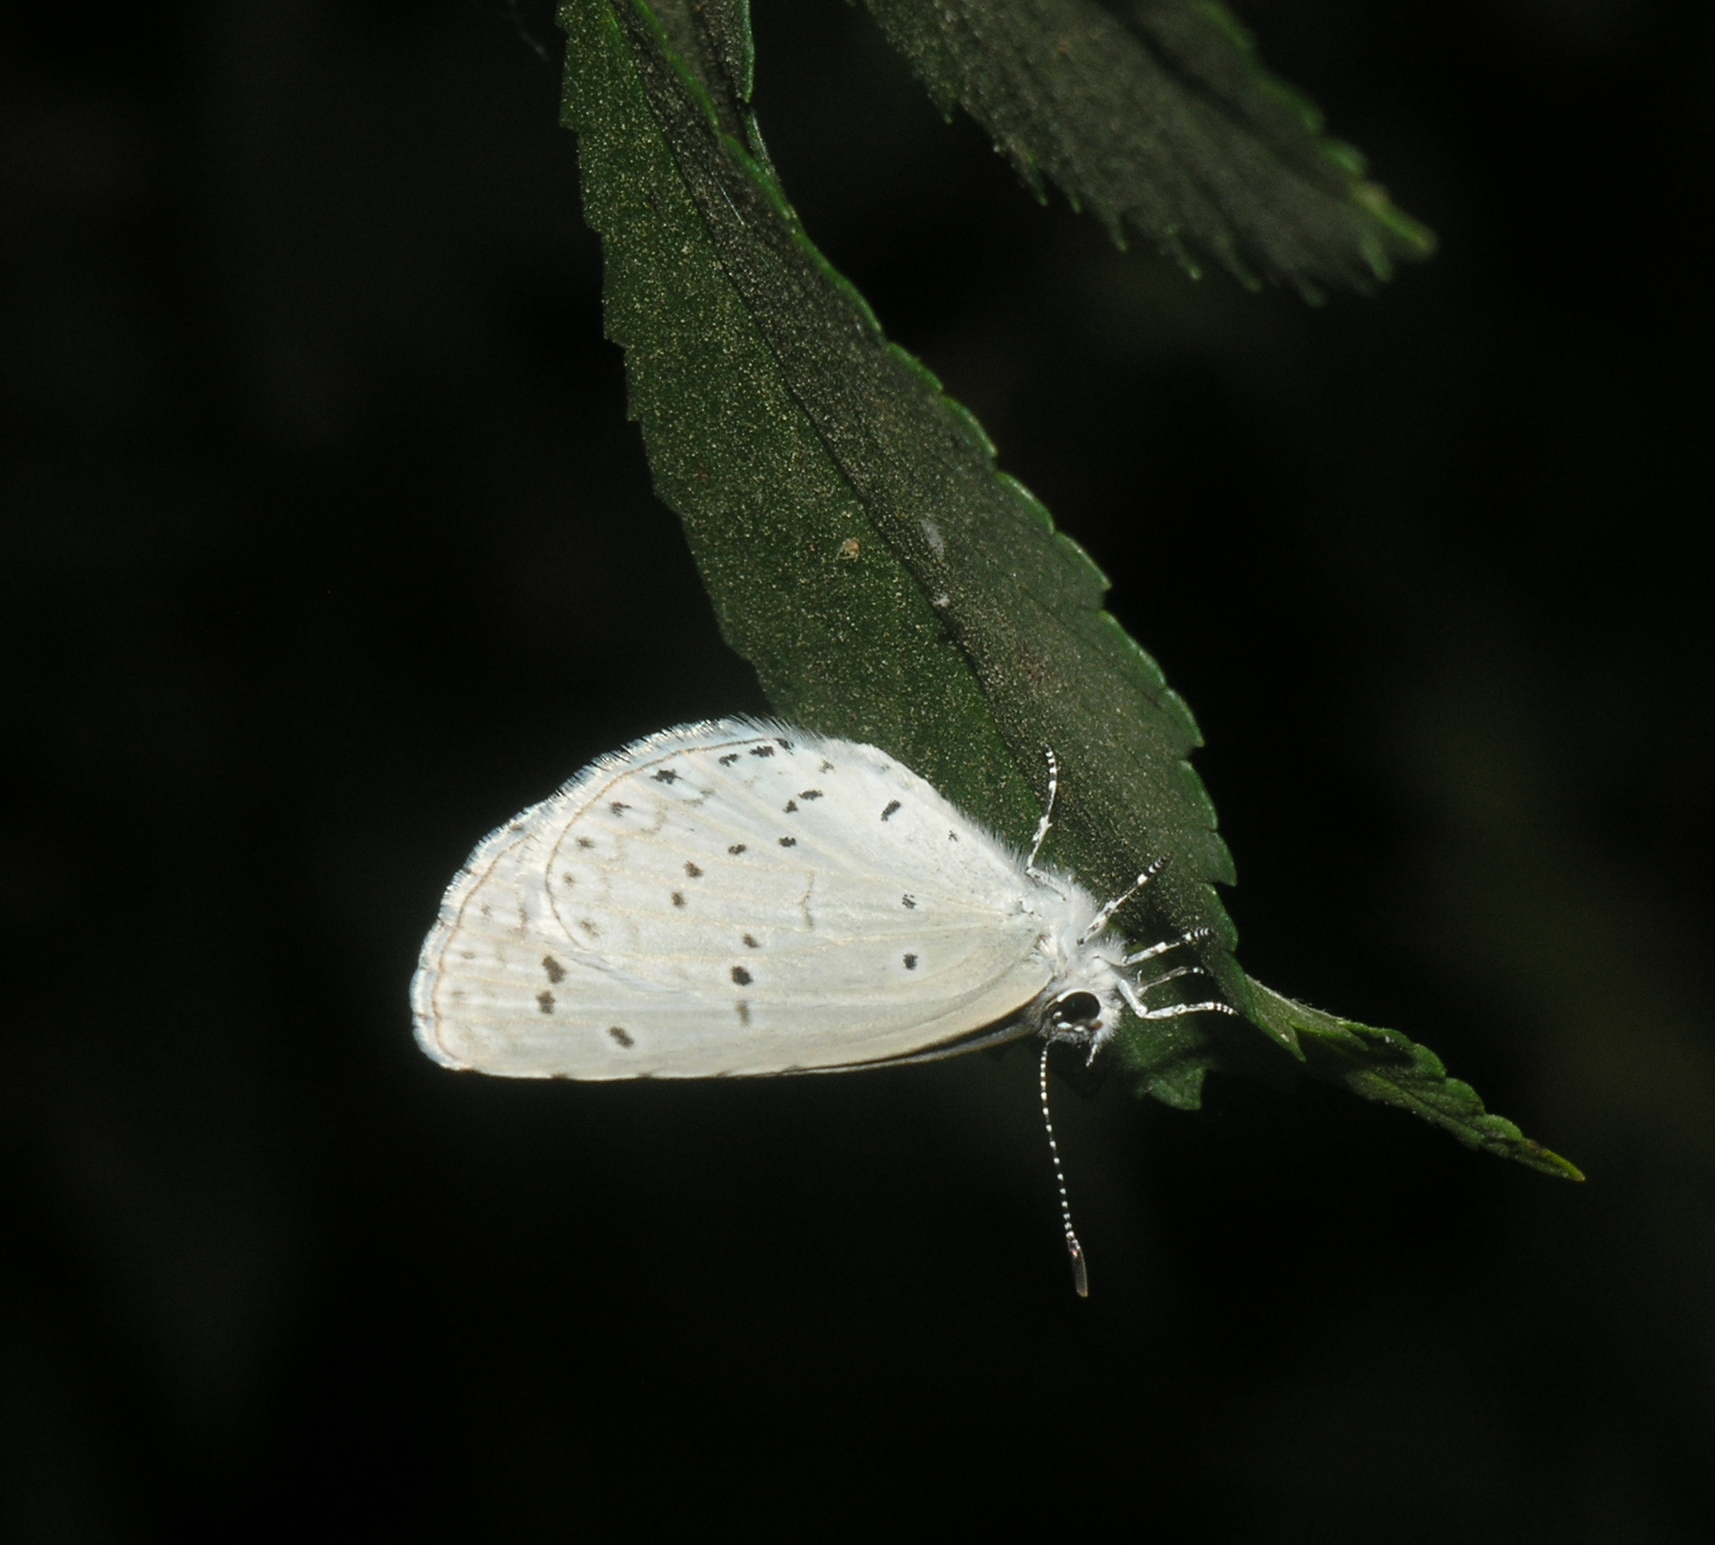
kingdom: Animalia
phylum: Arthropoda
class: Insecta
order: Lepidoptera
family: Lycaenidae
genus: Celastrina
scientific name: Celastrina argiolus
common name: Holly blue
